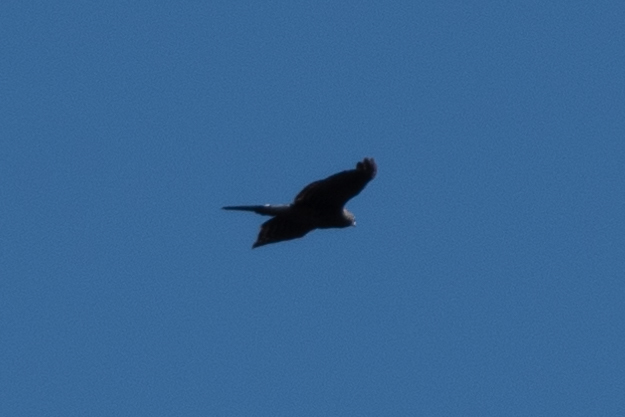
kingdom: Animalia
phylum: Chordata
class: Aves
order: Accipitriformes
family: Accipitridae
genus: Circus
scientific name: Circus cyaneus
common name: Hen harrier
